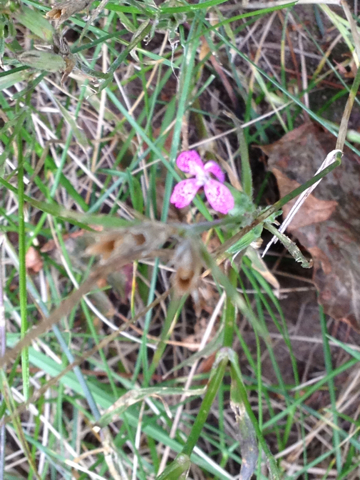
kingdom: Plantae
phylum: Tracheophyta
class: Magnoliopsida
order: Caryophyllales
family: Caryophyllaceae
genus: Dianthus
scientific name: Dianthus armeria
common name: Deptford pink
